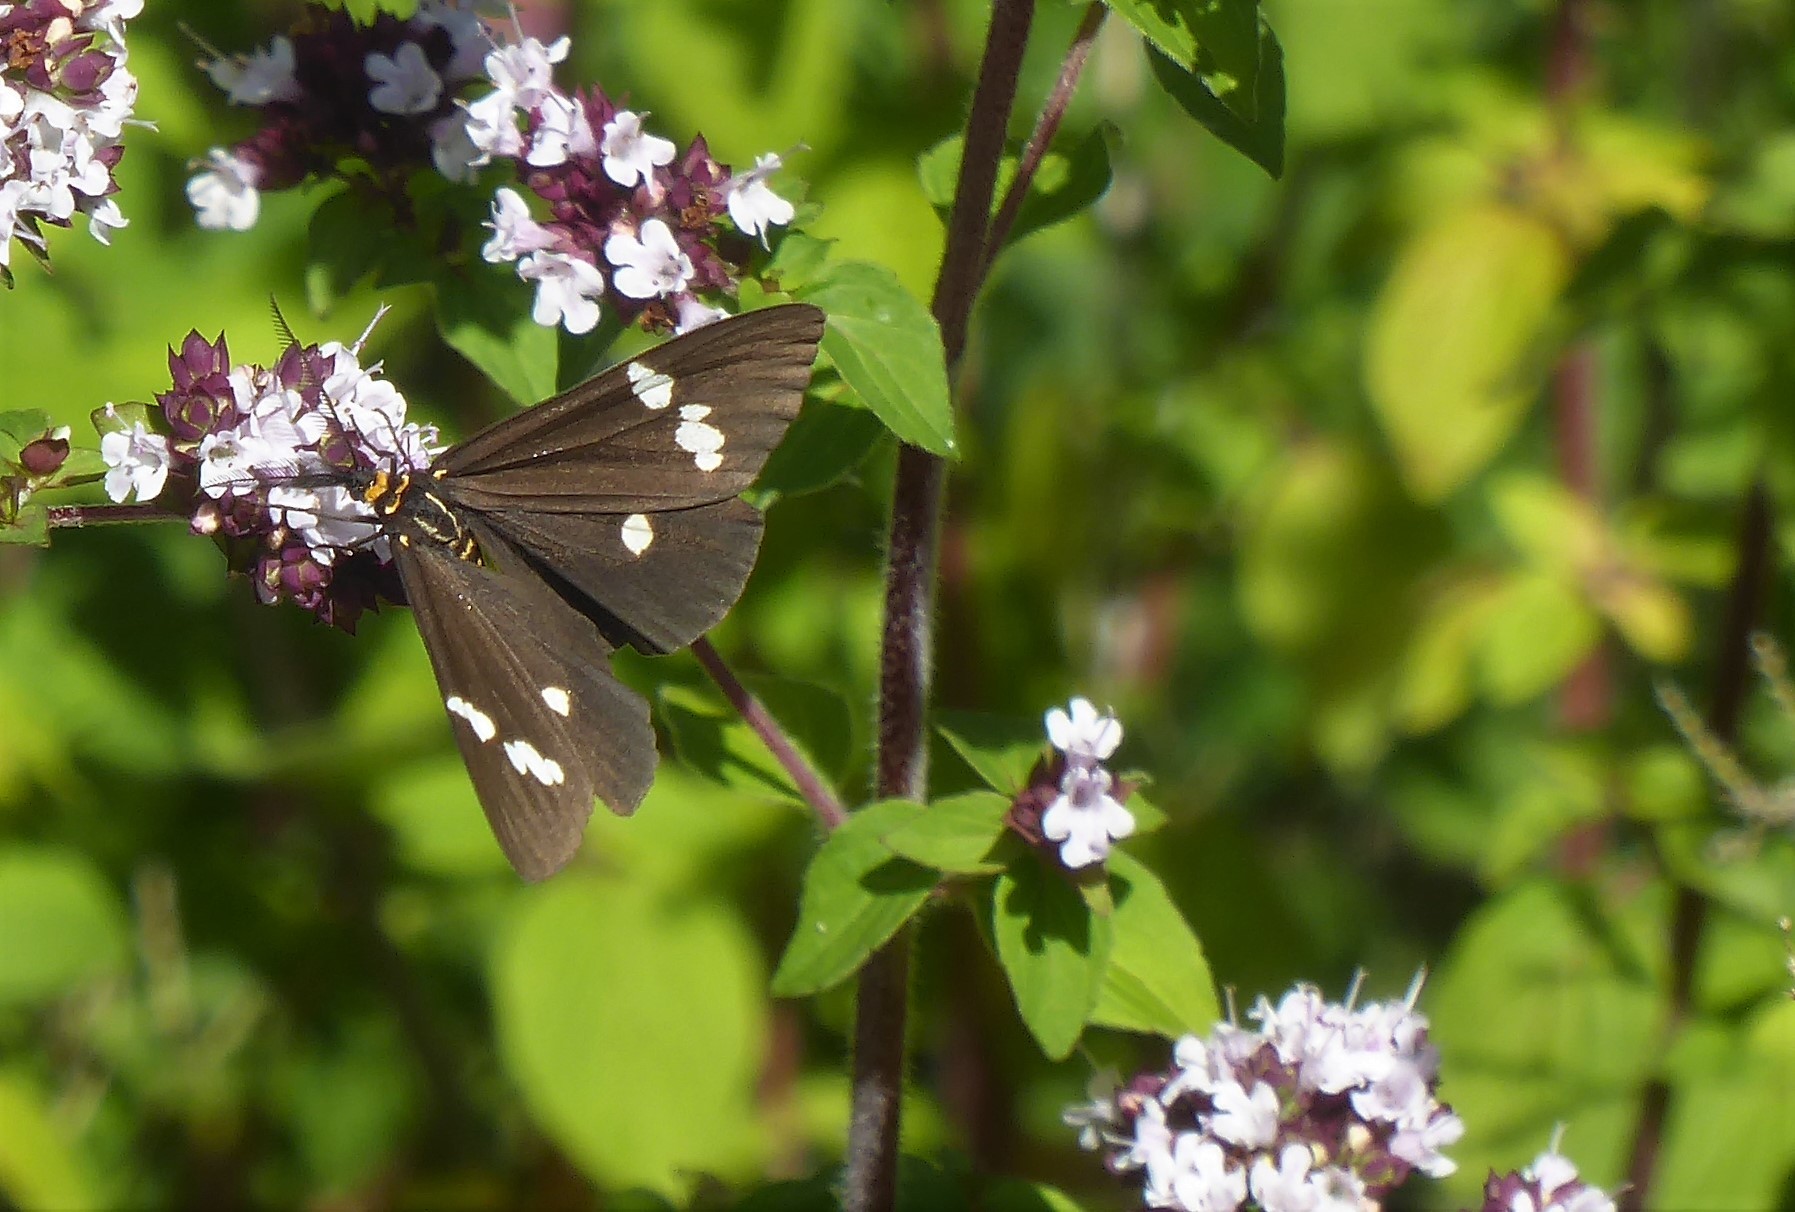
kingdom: Animalia
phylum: Arthropoda
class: Insecta
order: Lepidoptera
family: Erebidae
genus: Nyctemera
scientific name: Nyctemera annulatum
